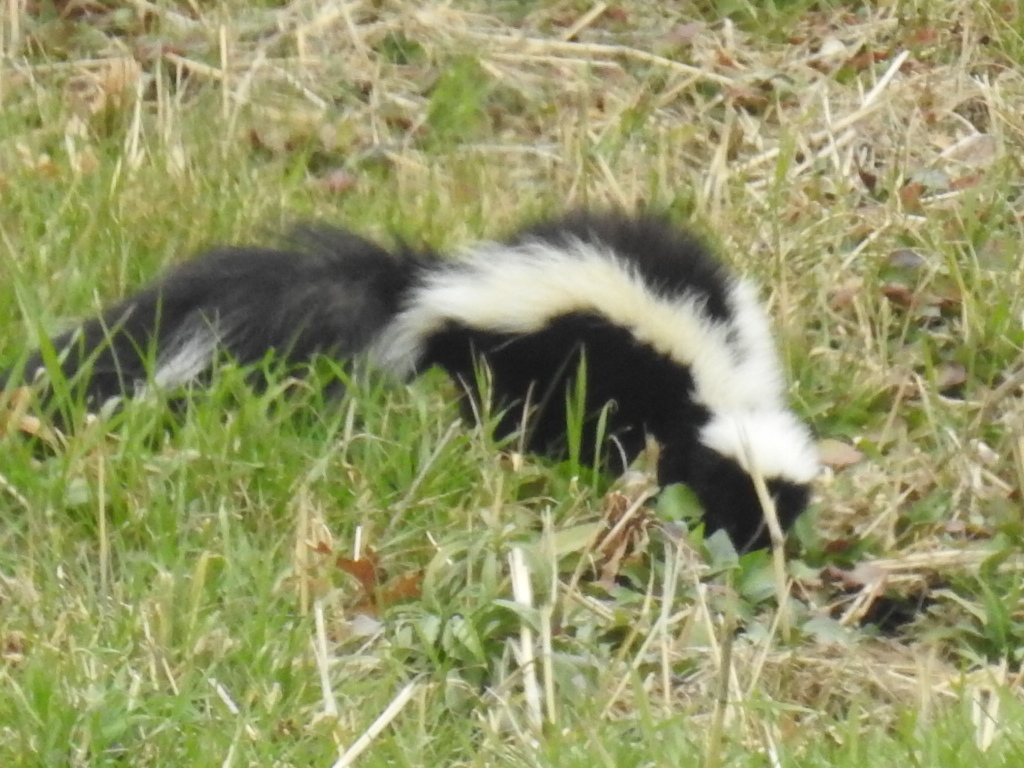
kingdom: Animalia
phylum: Chordata
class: Mammalia
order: Carnivora
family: Mephitidae
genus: Mephitis
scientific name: Mephitis mephitis
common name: Striped skunk
